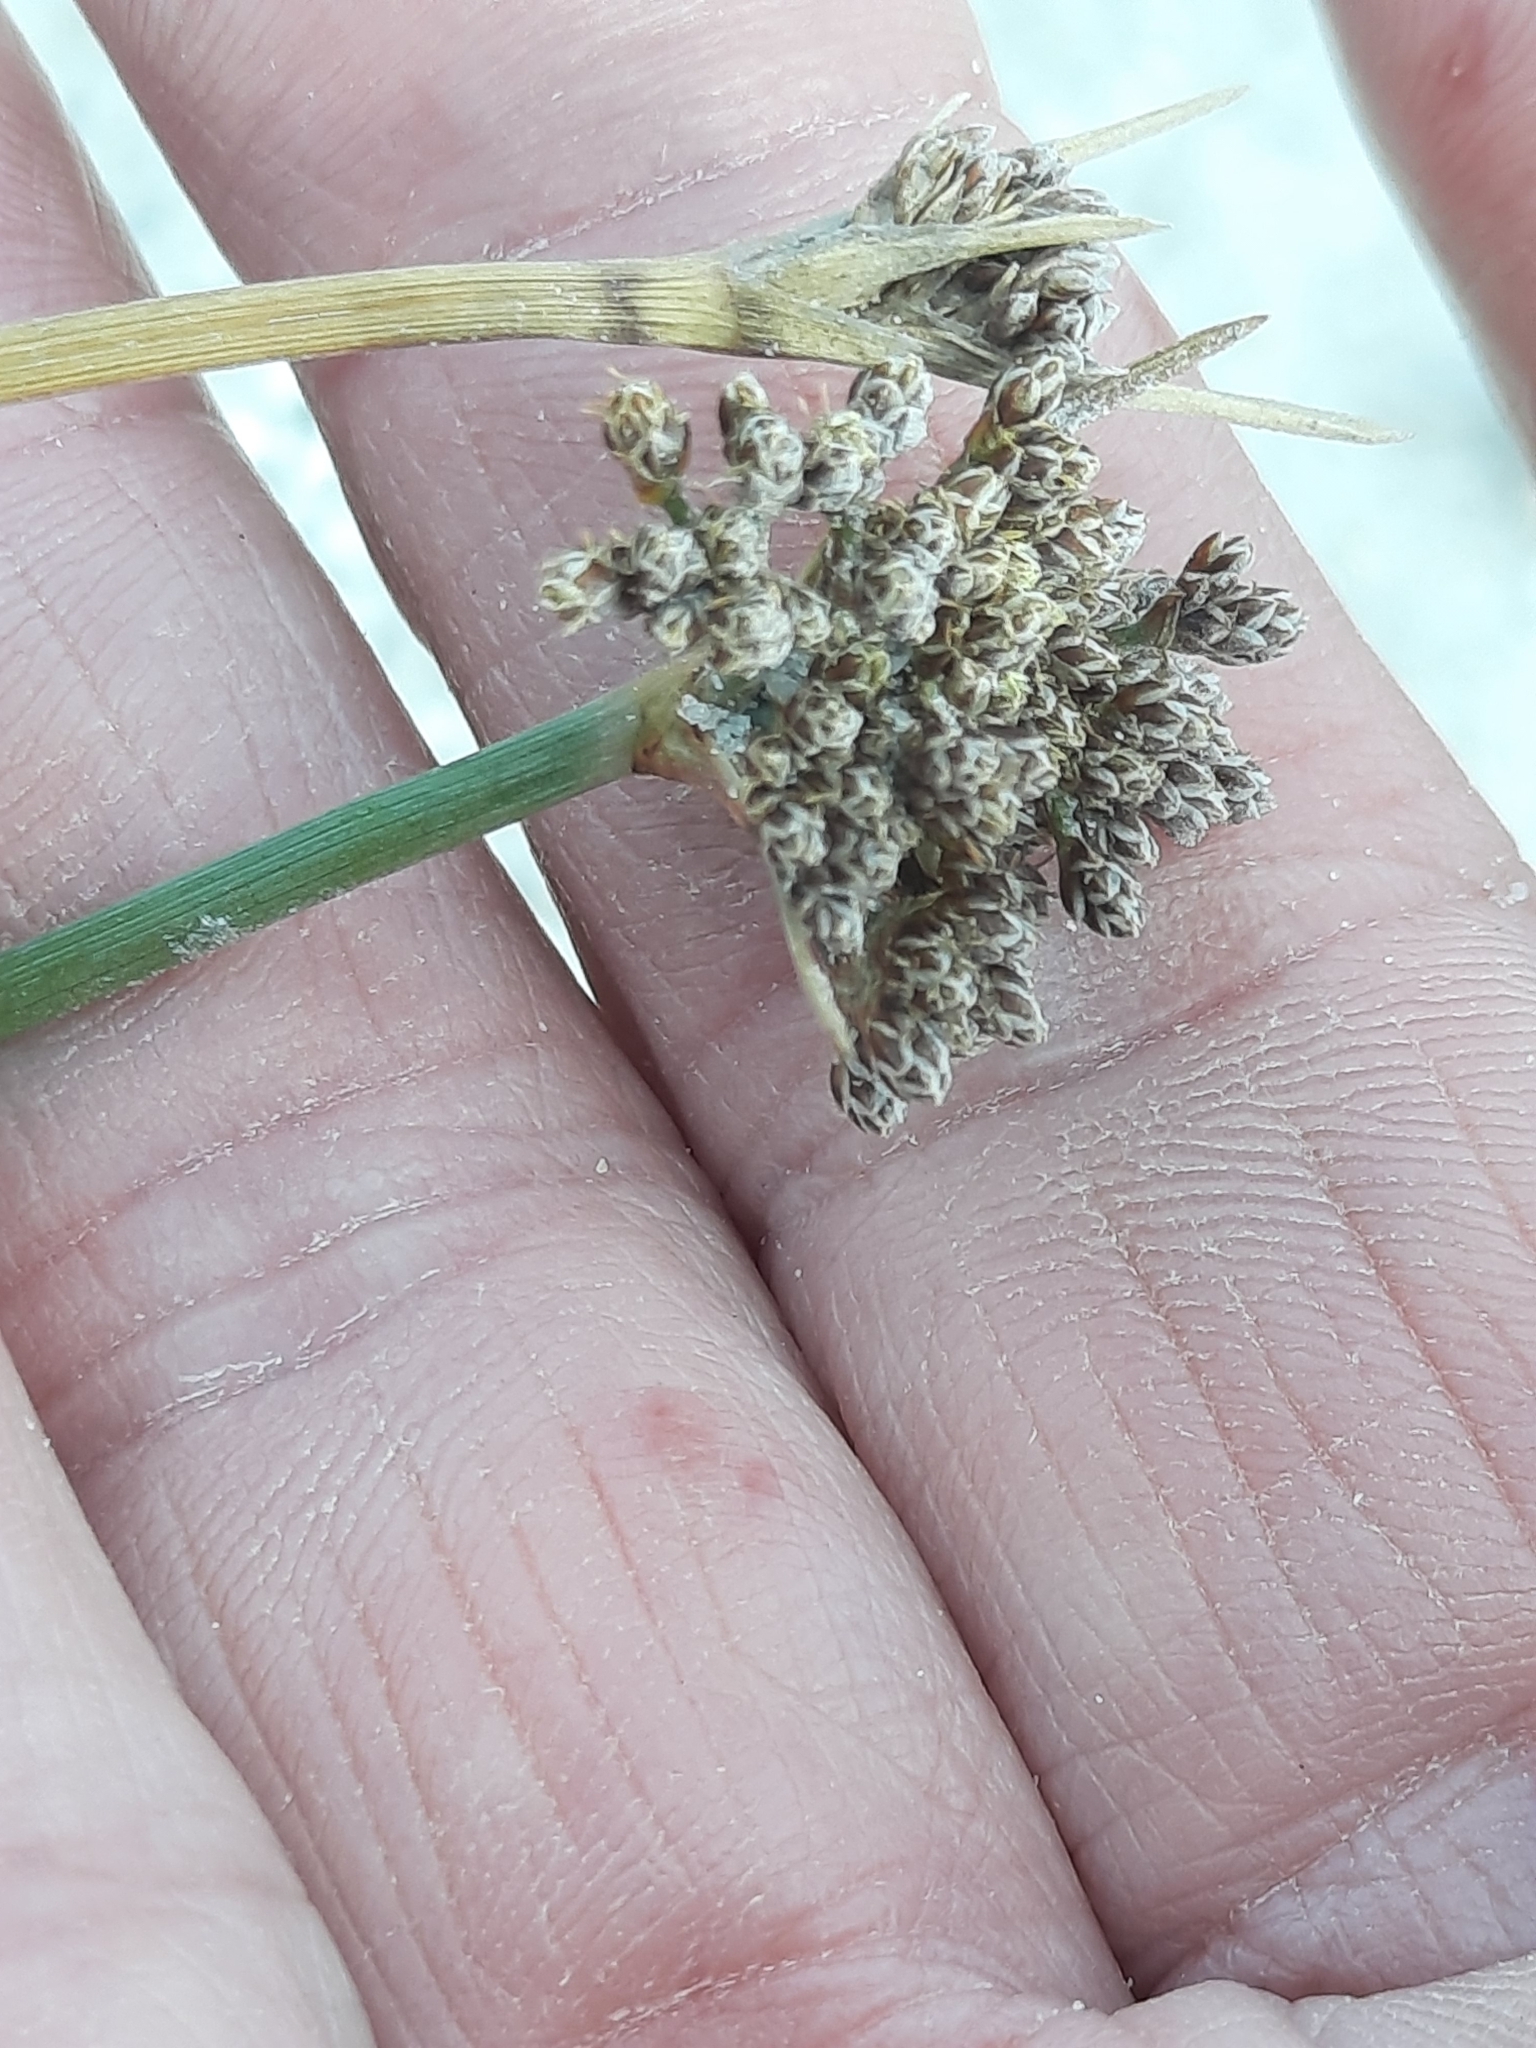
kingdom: Plantae
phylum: Tracheophyta
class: Liliopsida
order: Poales
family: Cyperaceae
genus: Fimbristylis
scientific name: Fimbristylis cymosa
